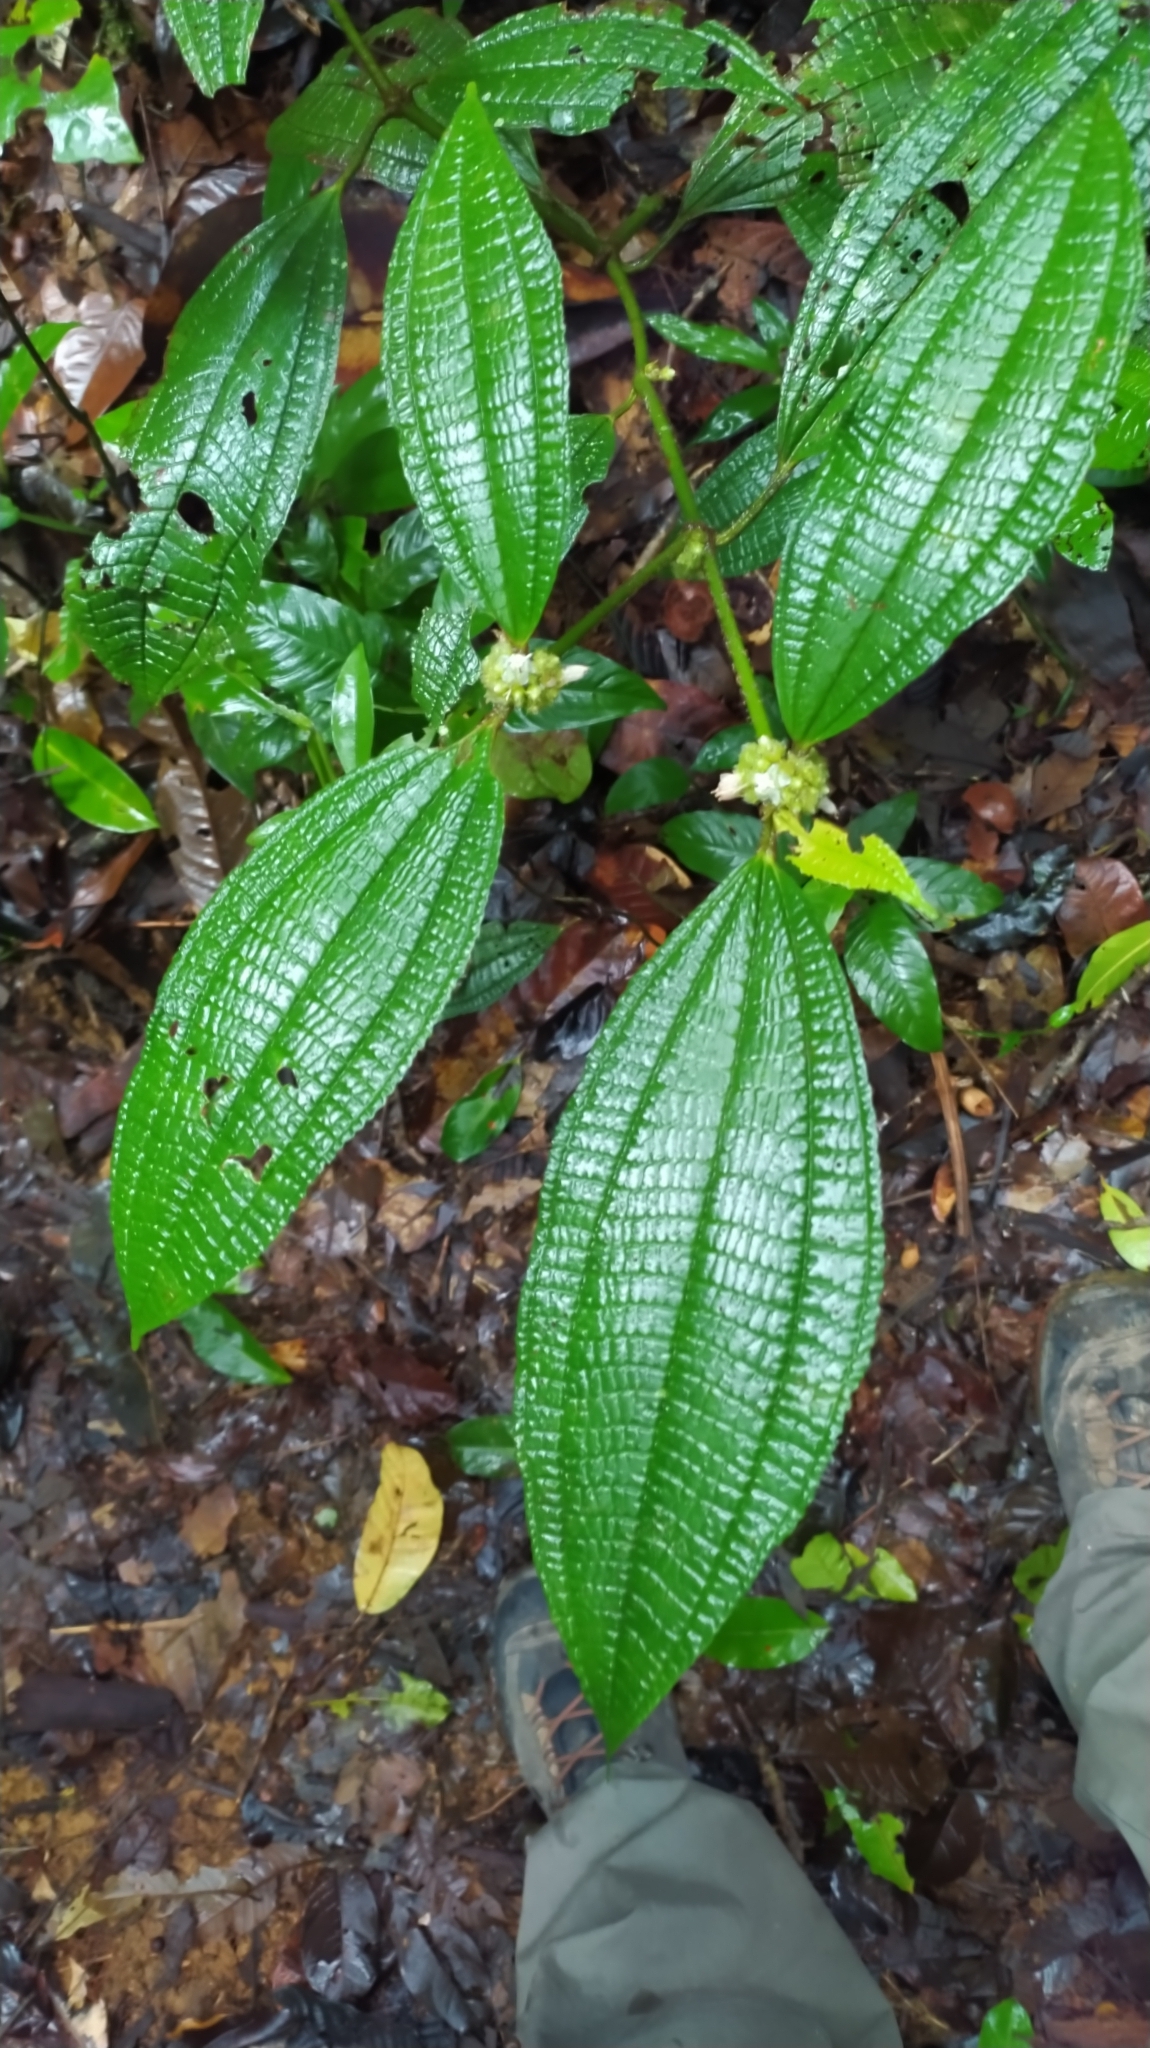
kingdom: Plantae
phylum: Tracheophyta
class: Magnoliopsida
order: Myrtales
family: Melastomataceae
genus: Miconia
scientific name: Miconia conglomerata
